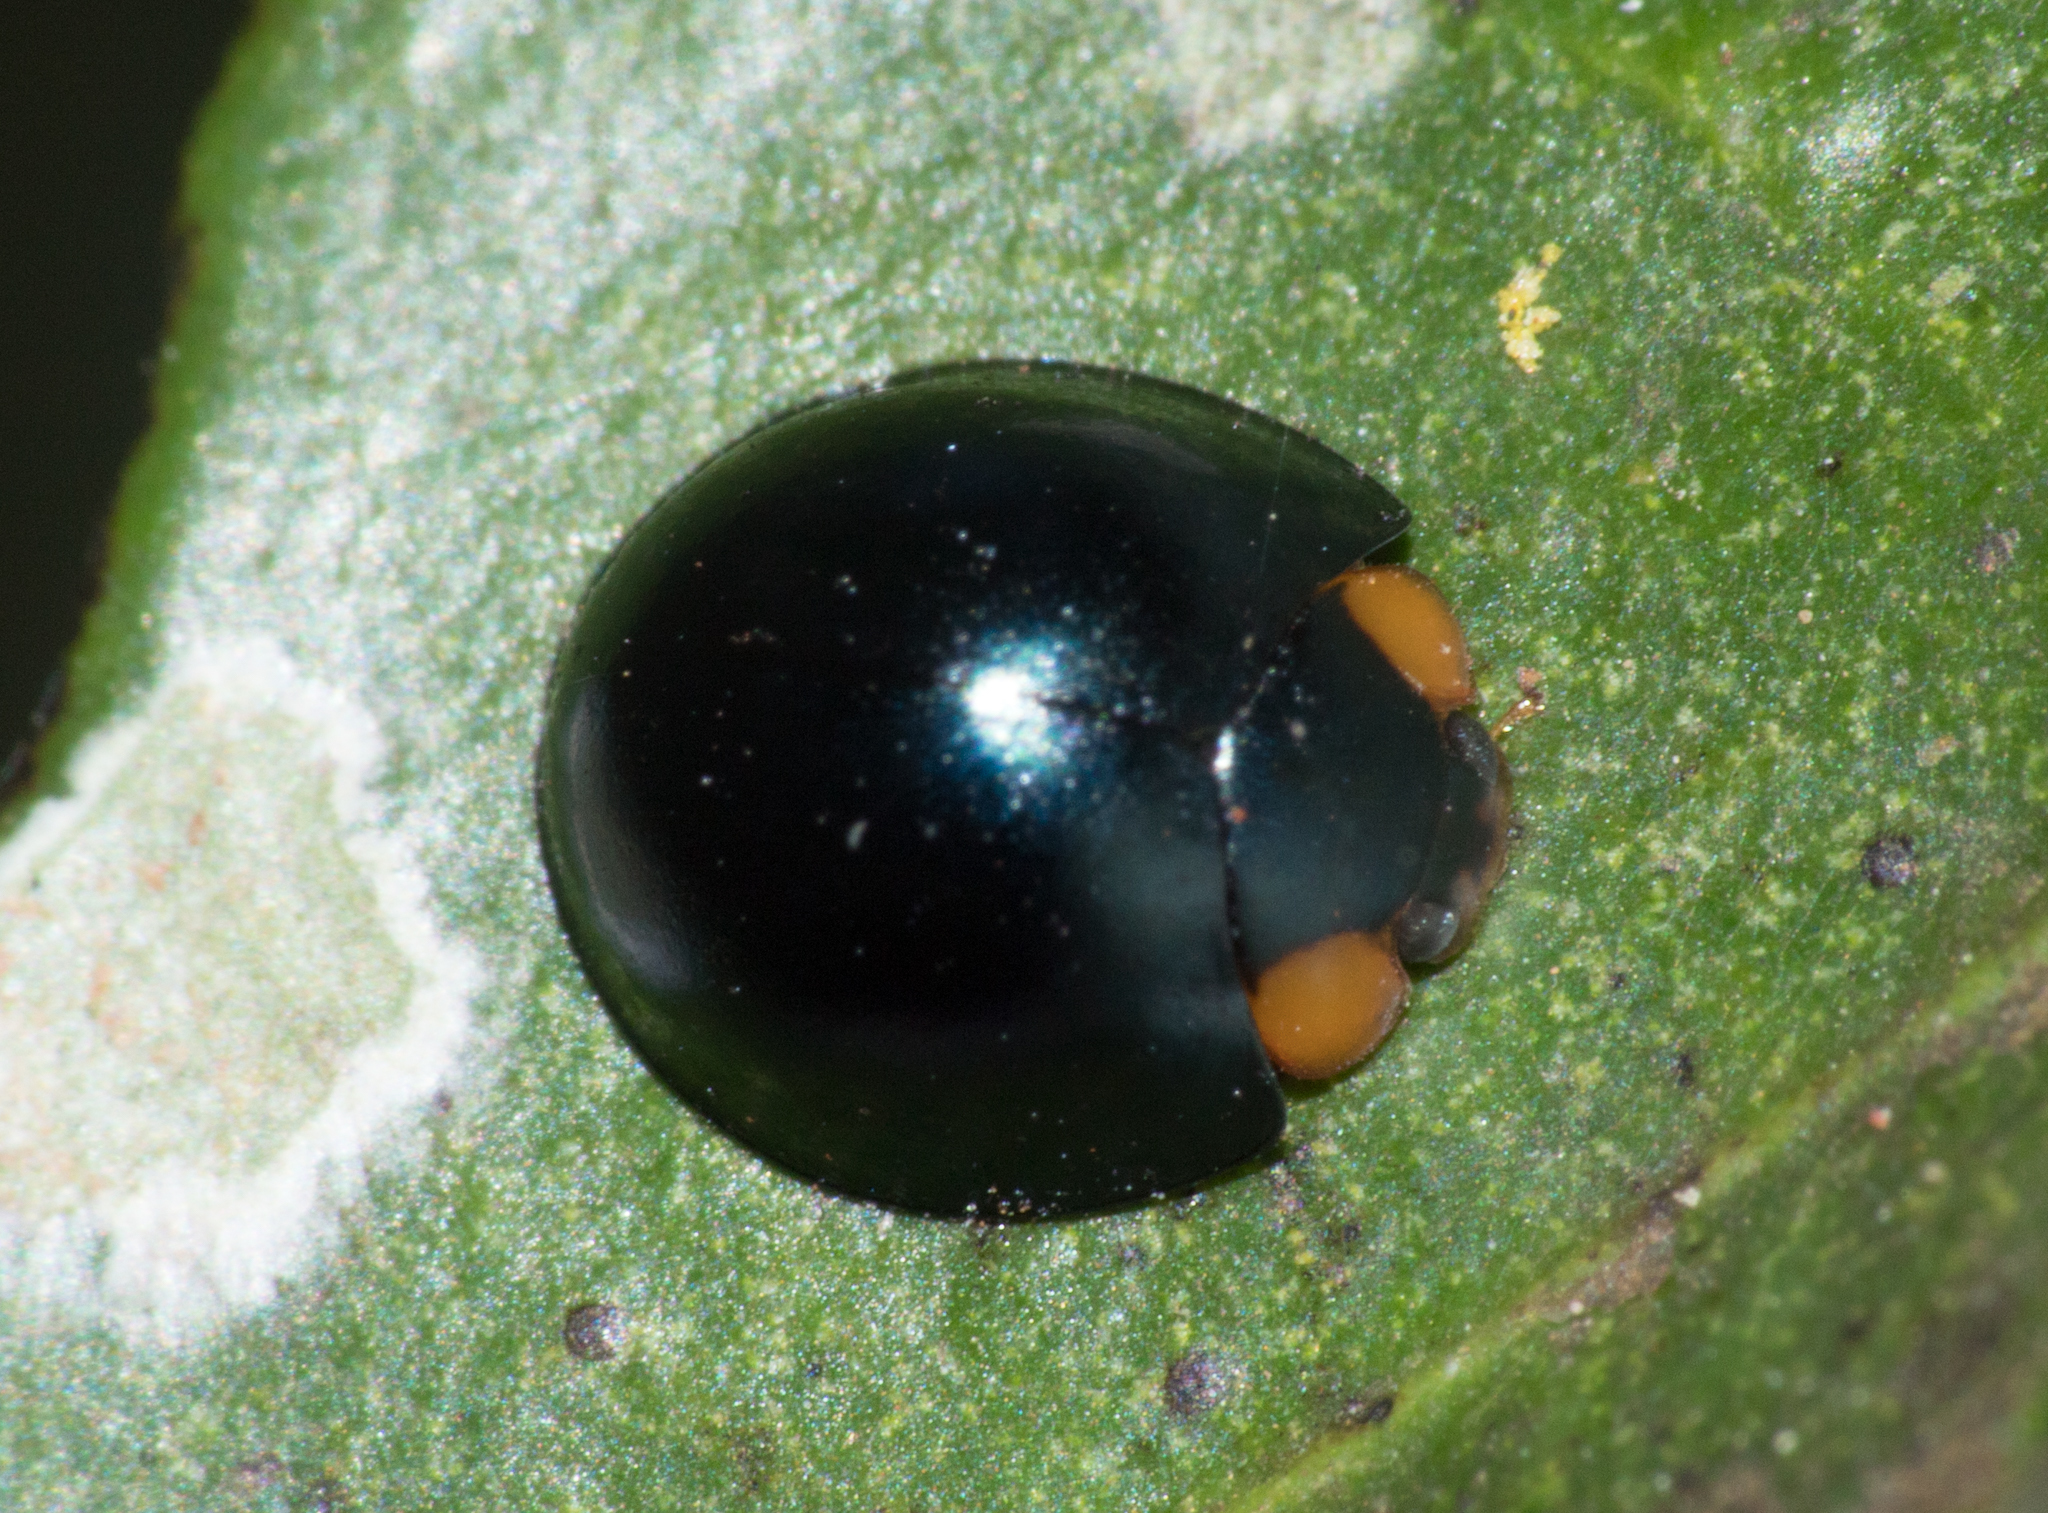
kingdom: Animalia
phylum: Arthropoda
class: Insecta
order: Coleoptera
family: Coccinellidae
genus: Curinus
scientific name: Curinus coeruleus
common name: Ladybird beetle
